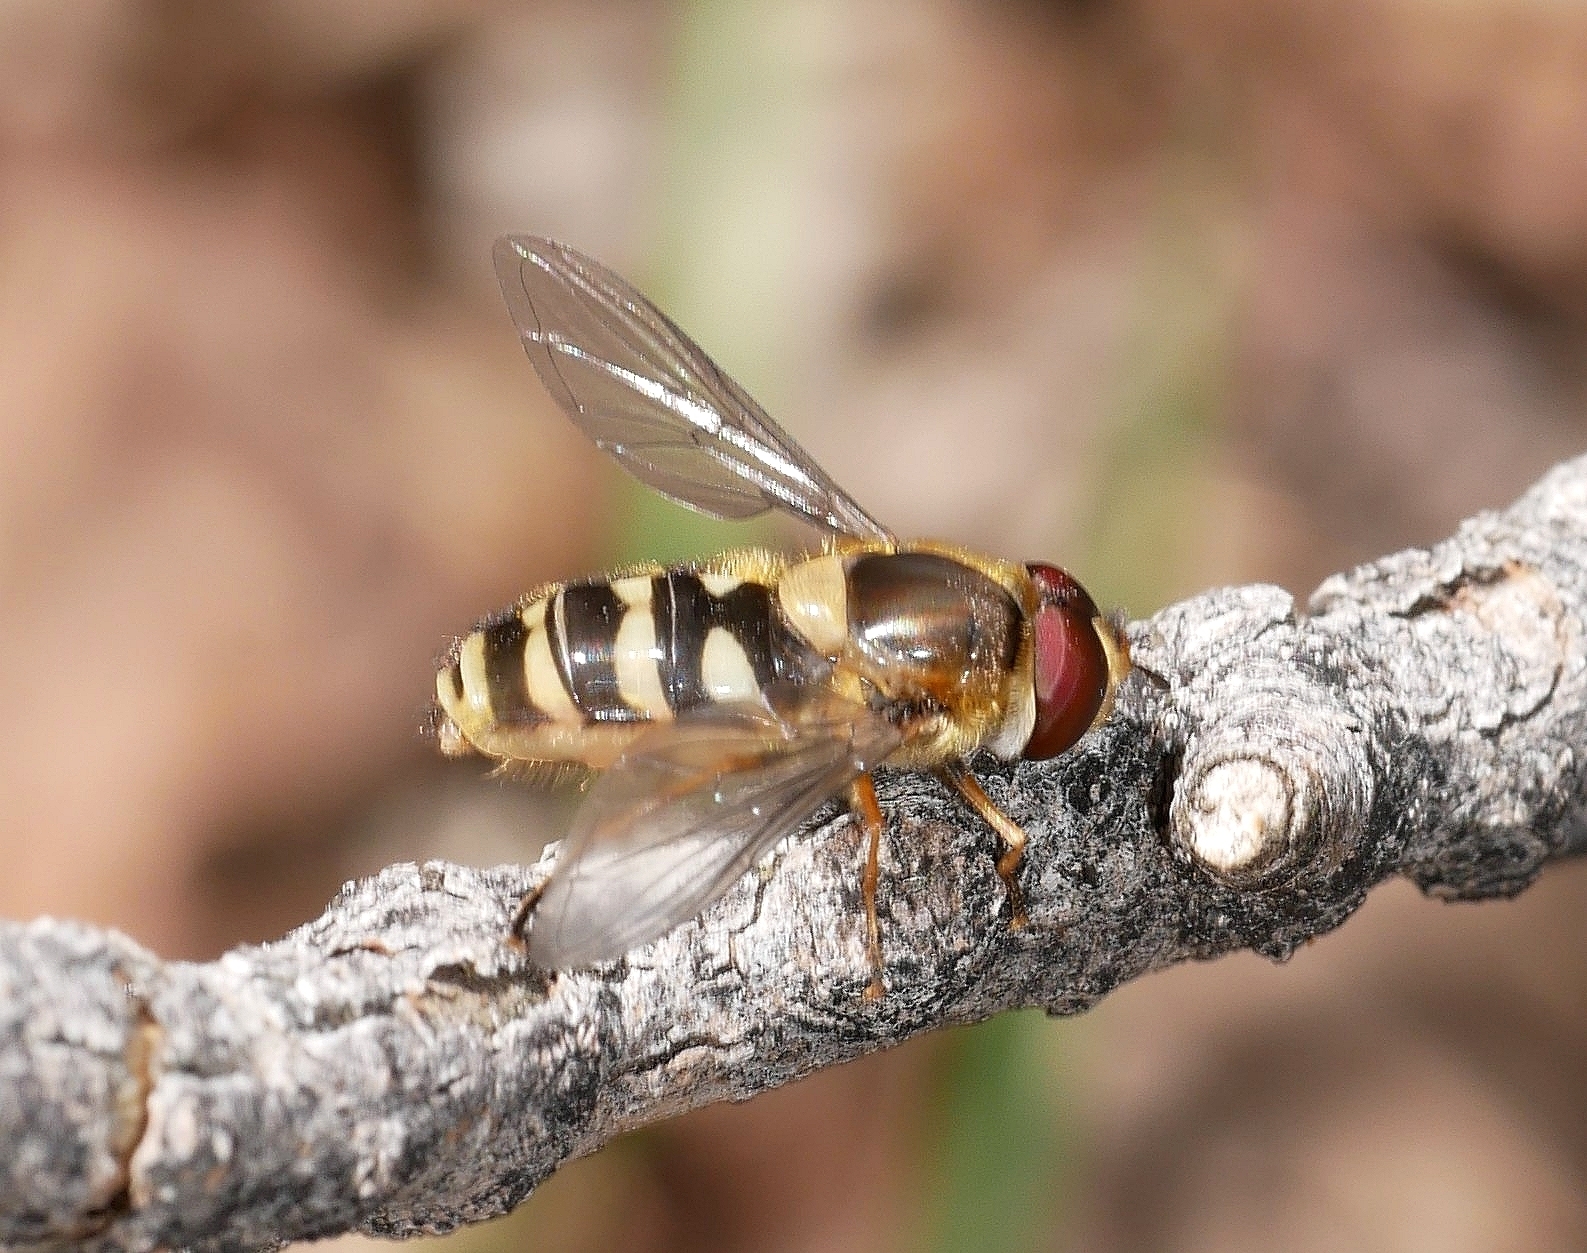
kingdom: Animalia
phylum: Arthropoda
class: Insecta
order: Diptera
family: Syrphidae
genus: Syrphus
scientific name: Syrphus
